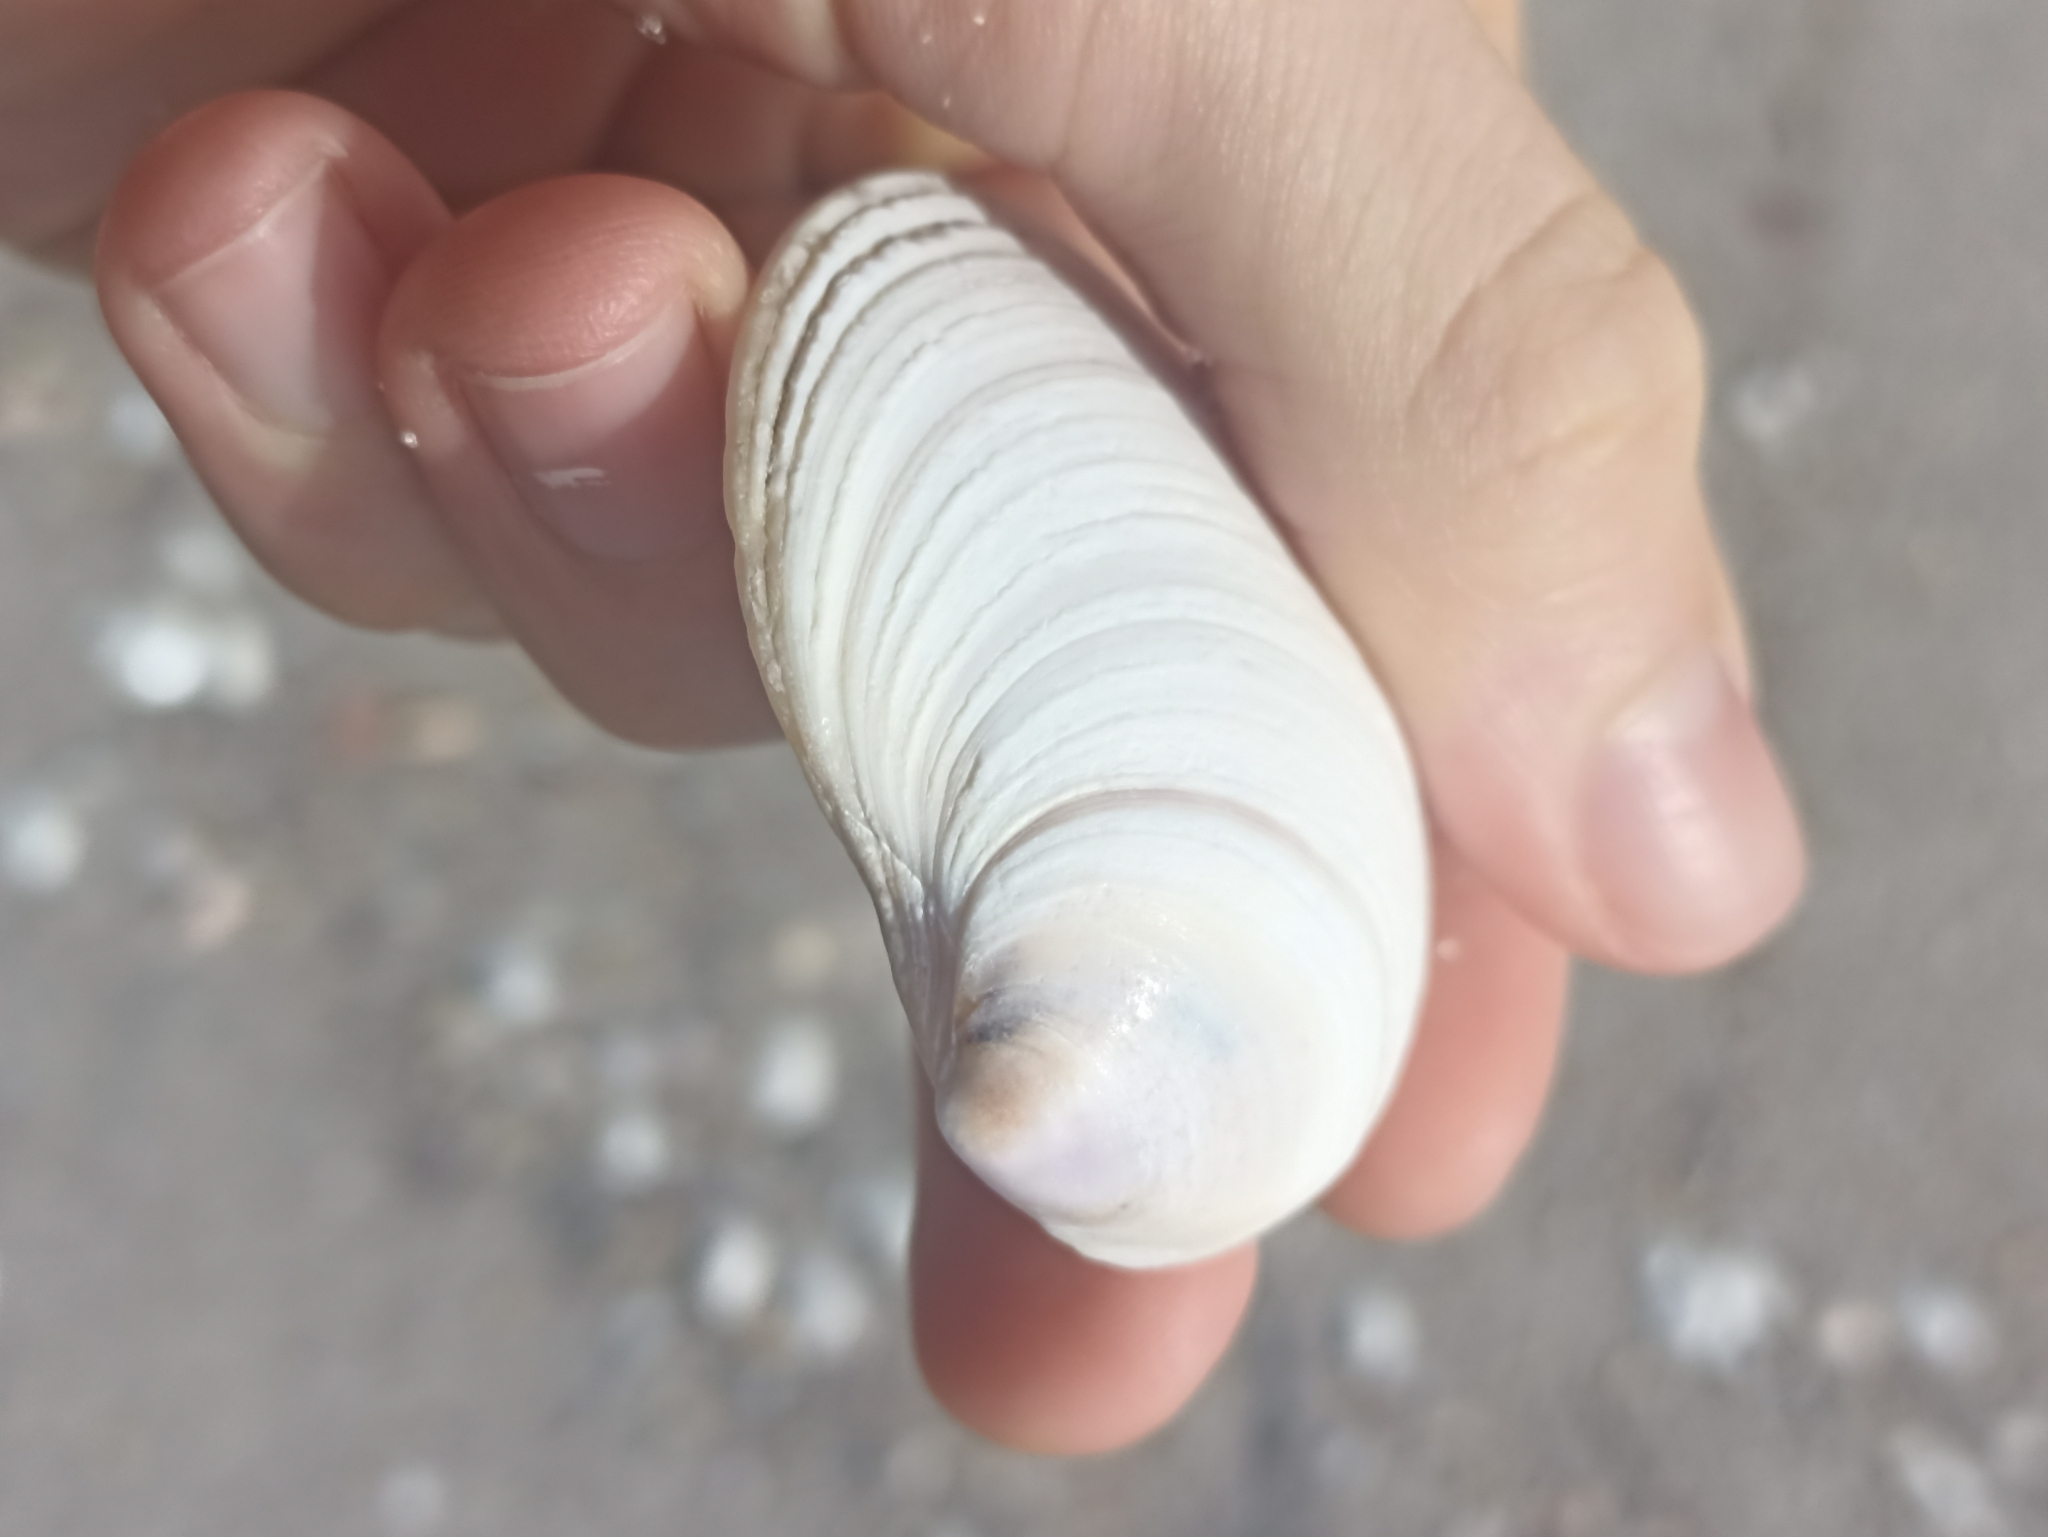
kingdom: Animalia
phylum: Mollusca
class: Bivalvia
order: Venerida
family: Veneridae
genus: Bassina
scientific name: Bassina yatei
